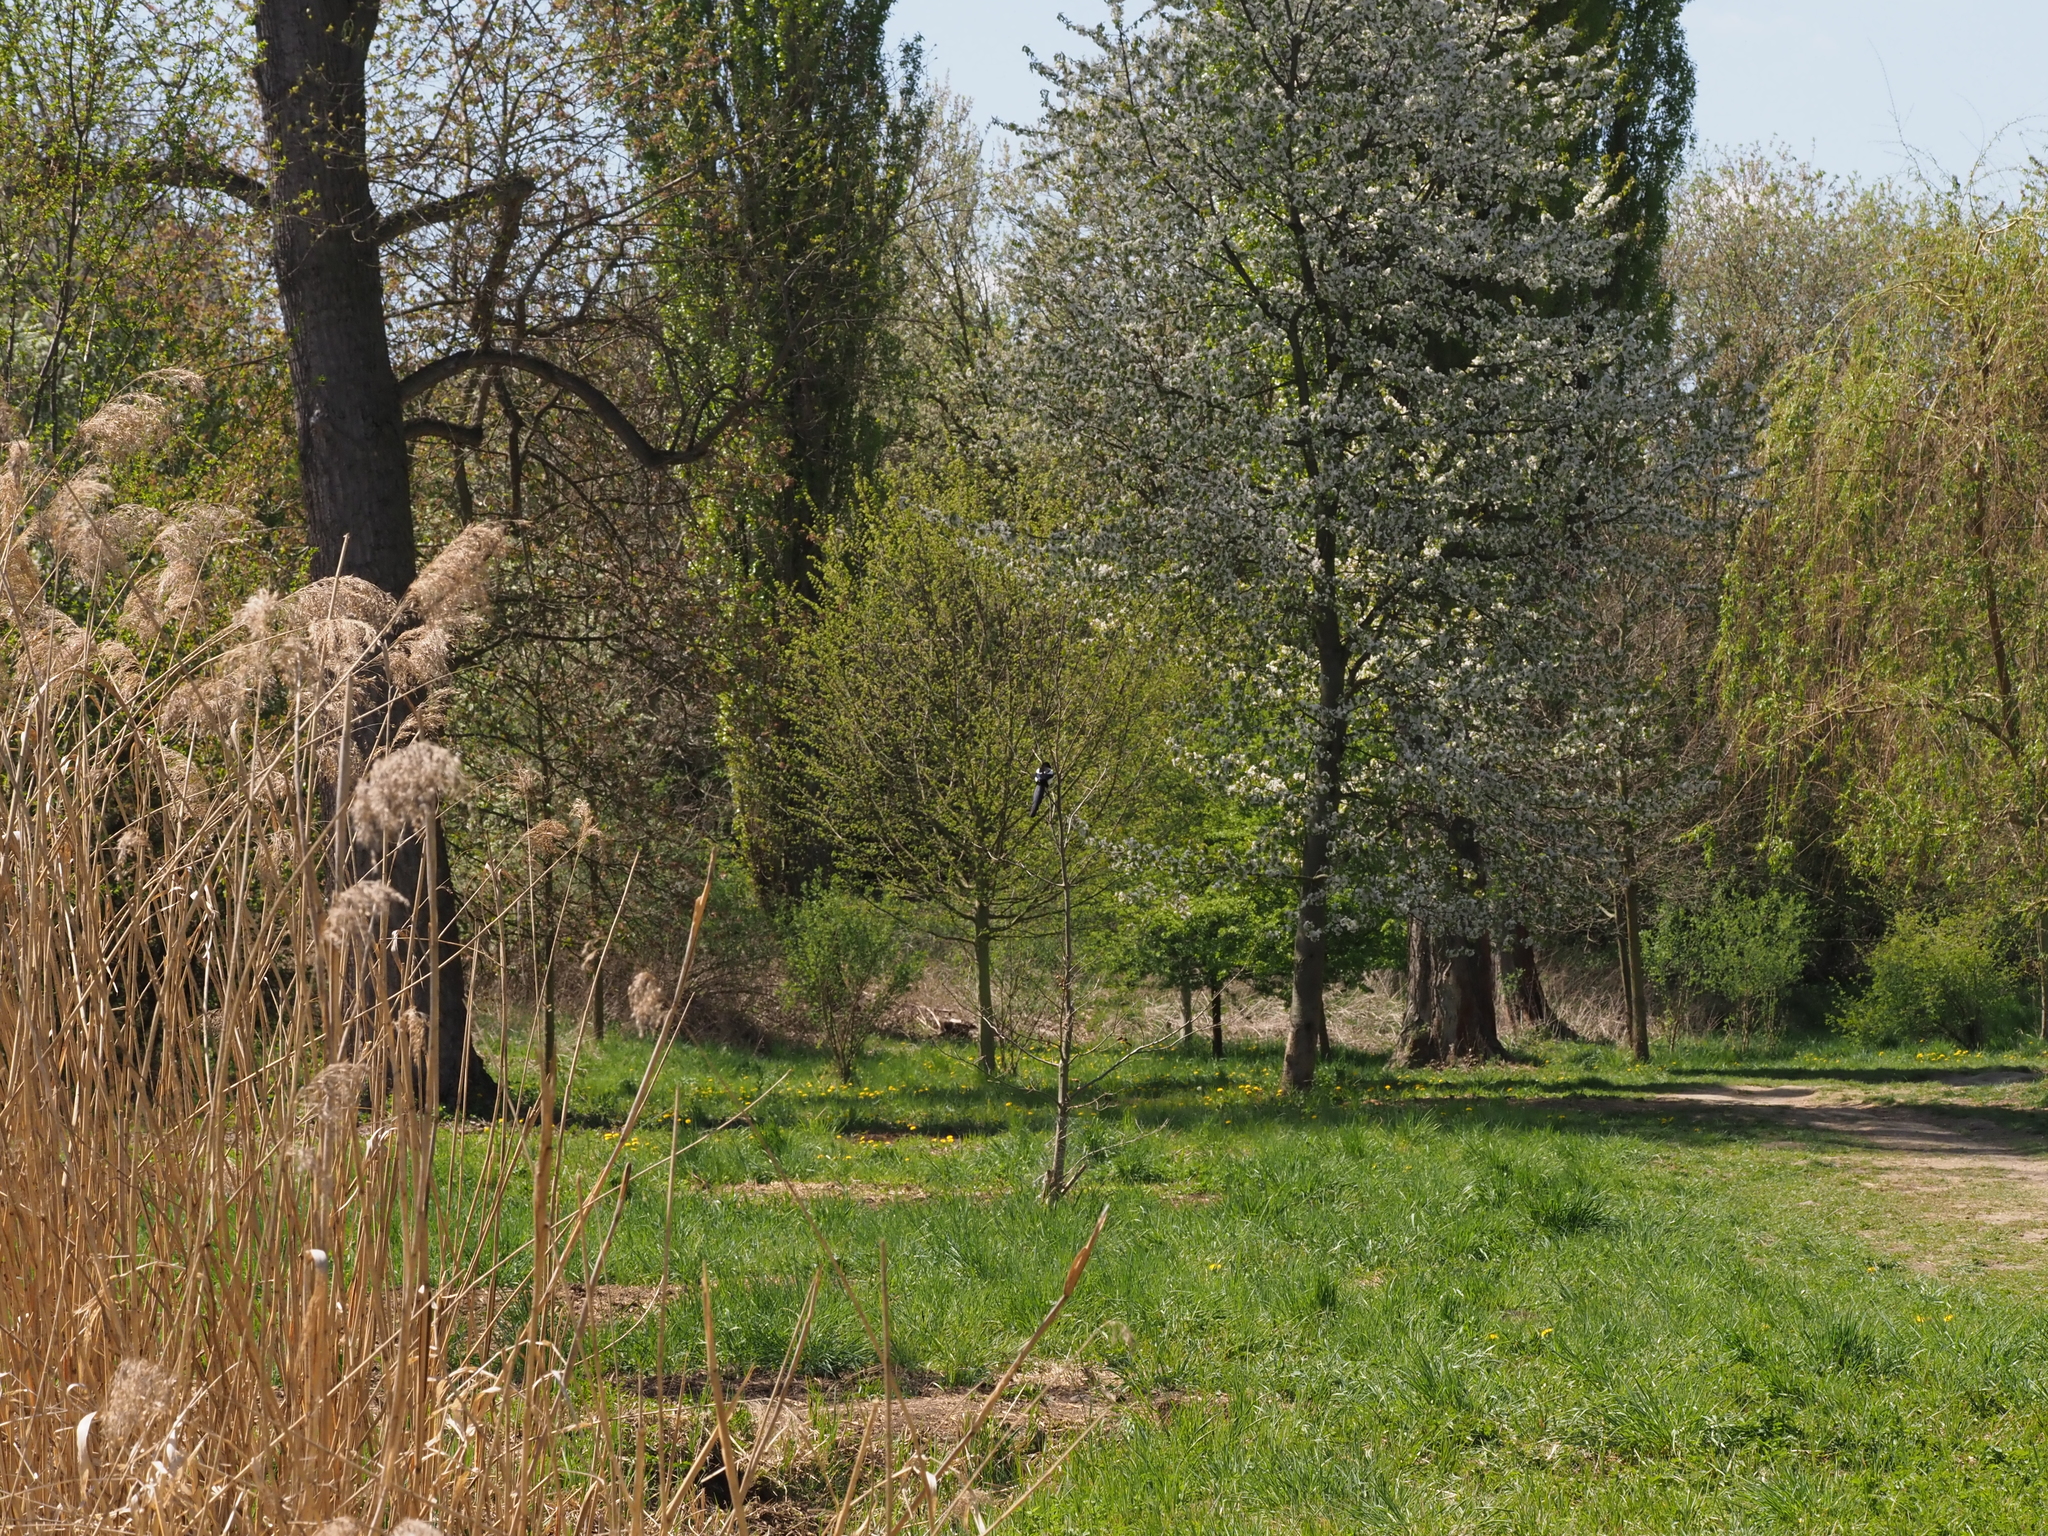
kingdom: Animalia
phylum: Chordata
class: Aves
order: Passeriformes
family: Corvidae
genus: Pica
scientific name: Pica pica
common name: Eurasian magpie
